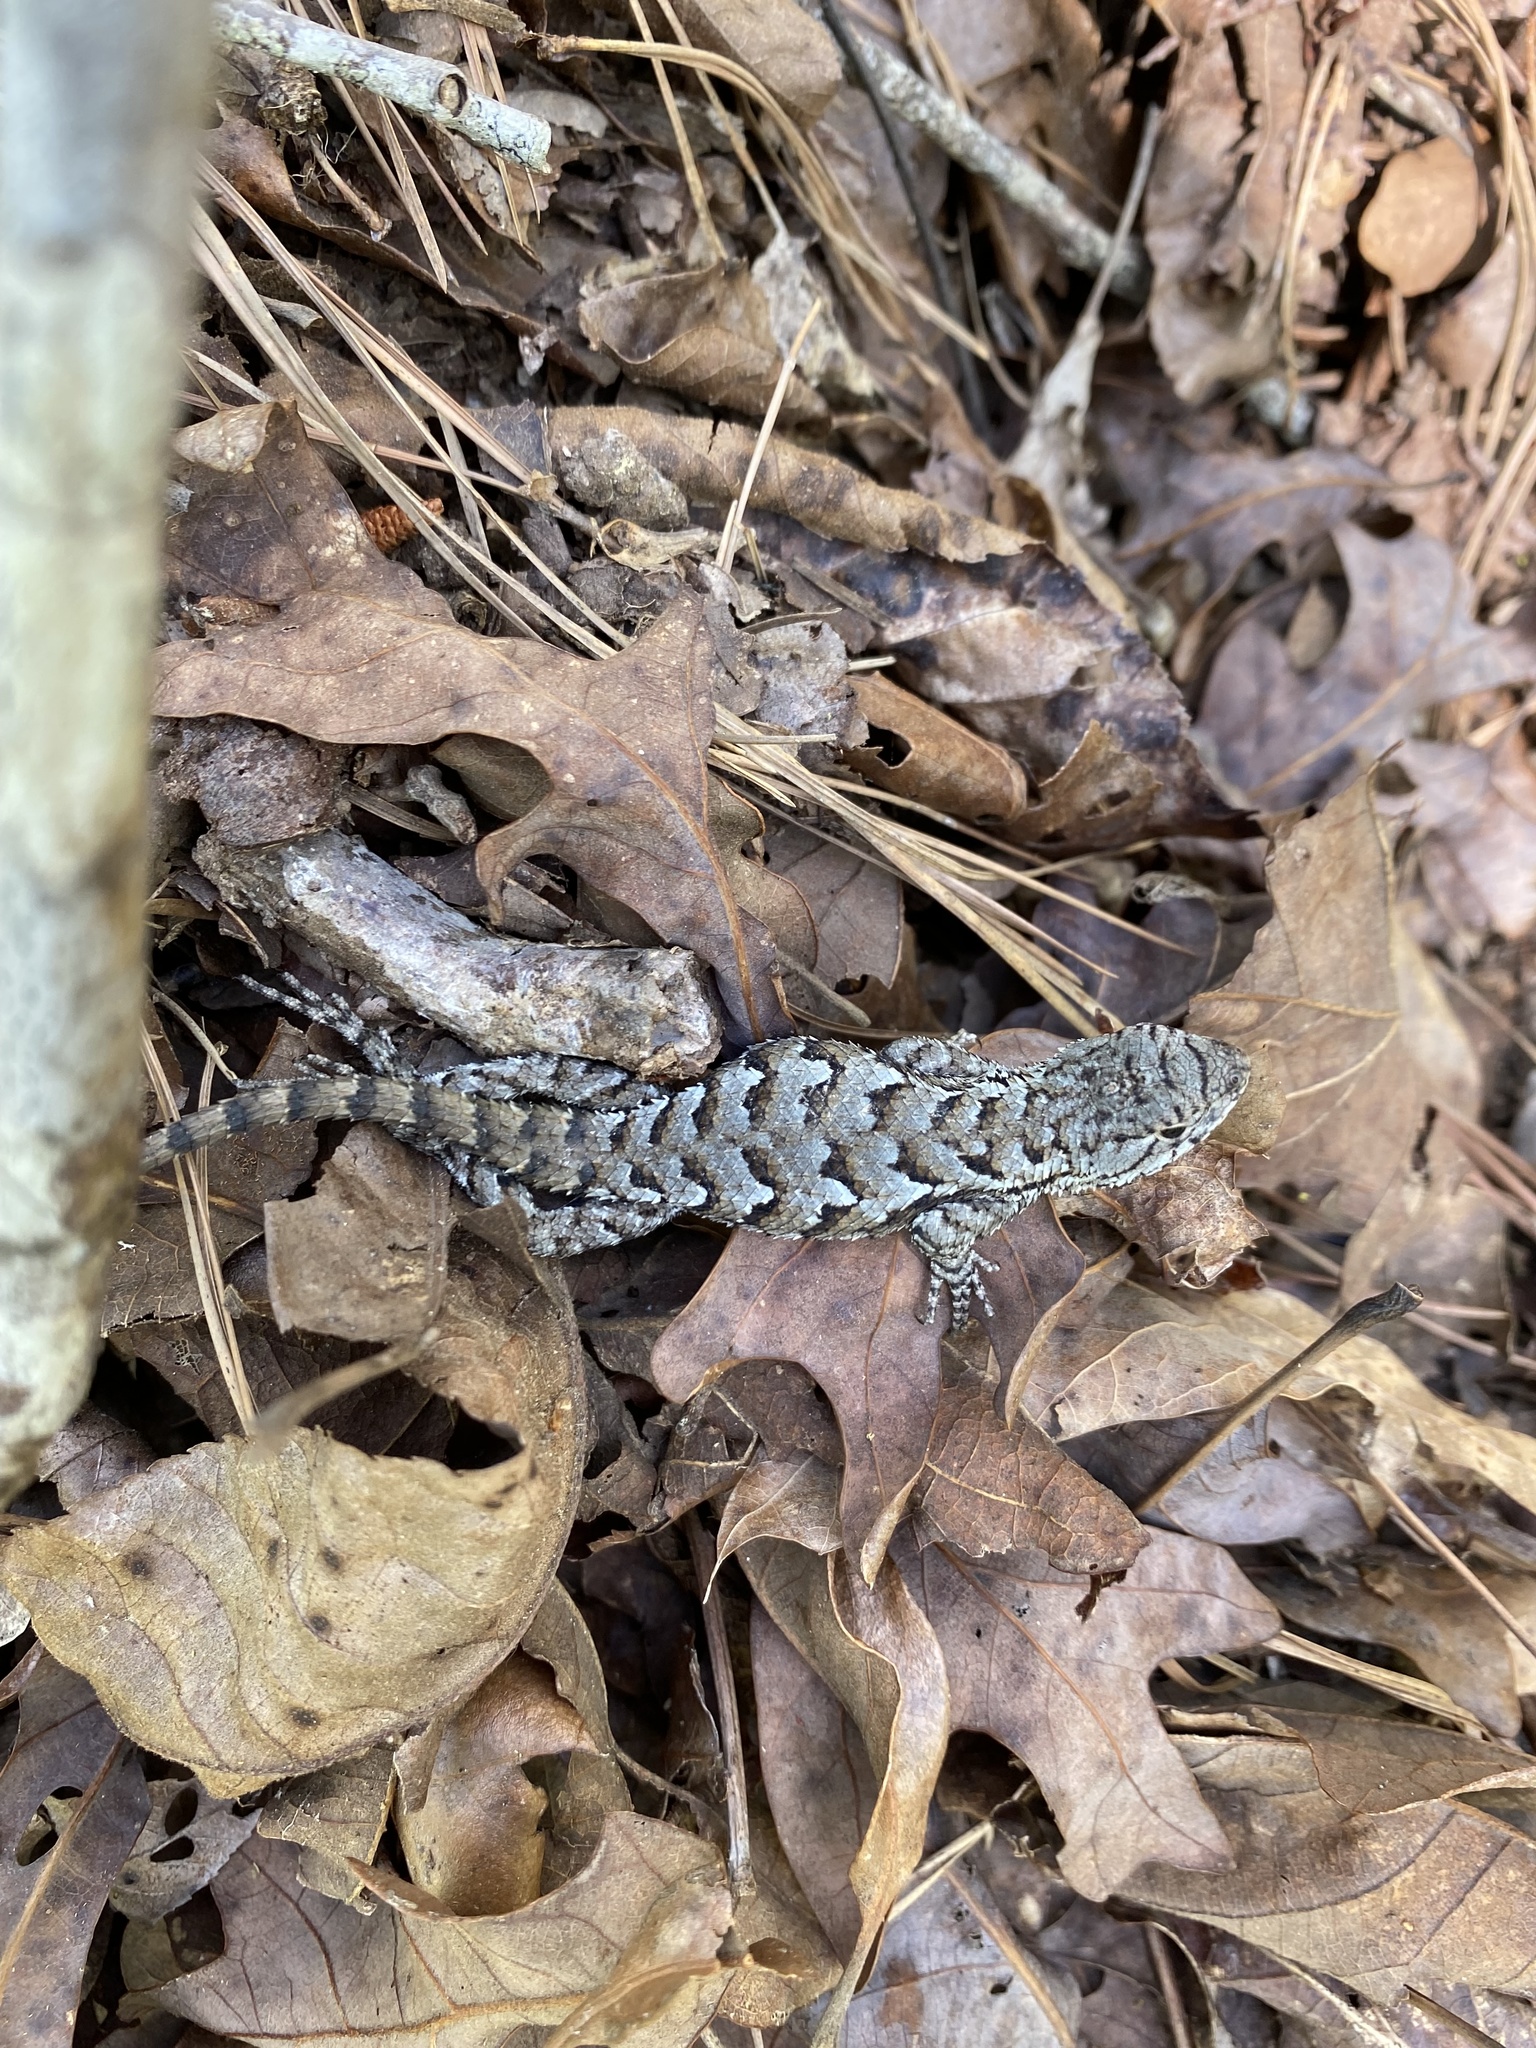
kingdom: Animalia
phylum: Chordata
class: Squamata
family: Phrynosomatidae
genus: Sceloporus
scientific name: Sceloporus undulatus
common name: Eastern fence lizard
